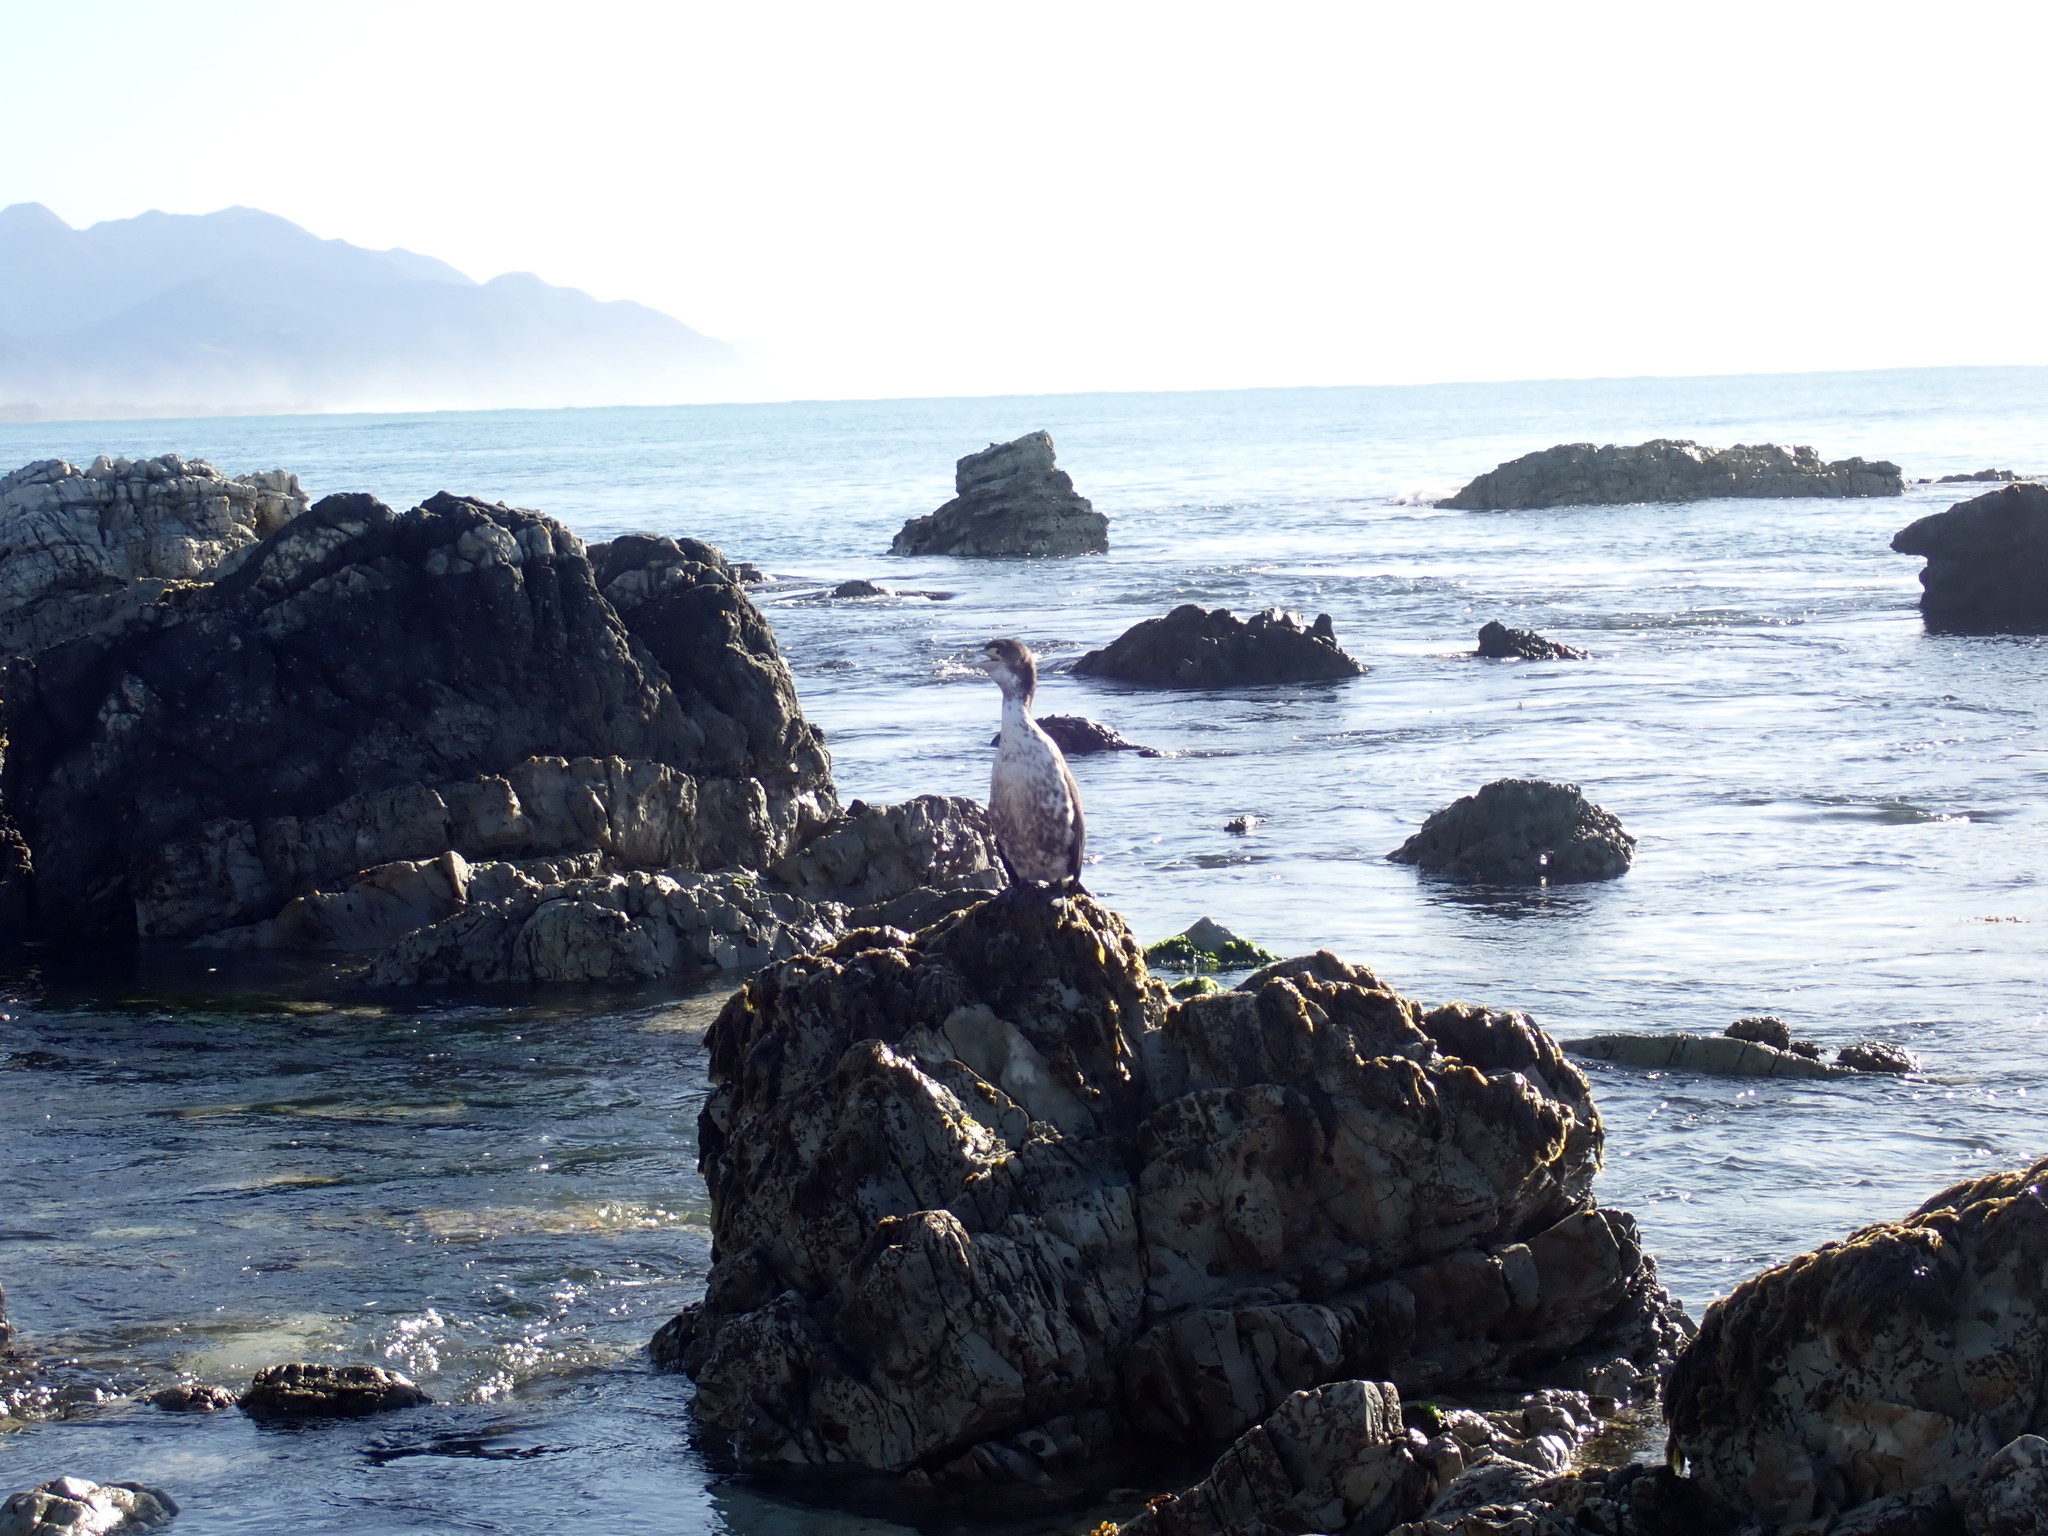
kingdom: Animalia
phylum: Chordata
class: Aves
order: Suliformes
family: Phalacrocoracidae
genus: Phalacrocorax
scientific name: Phalacrocorax varius
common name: Pied cormorant
